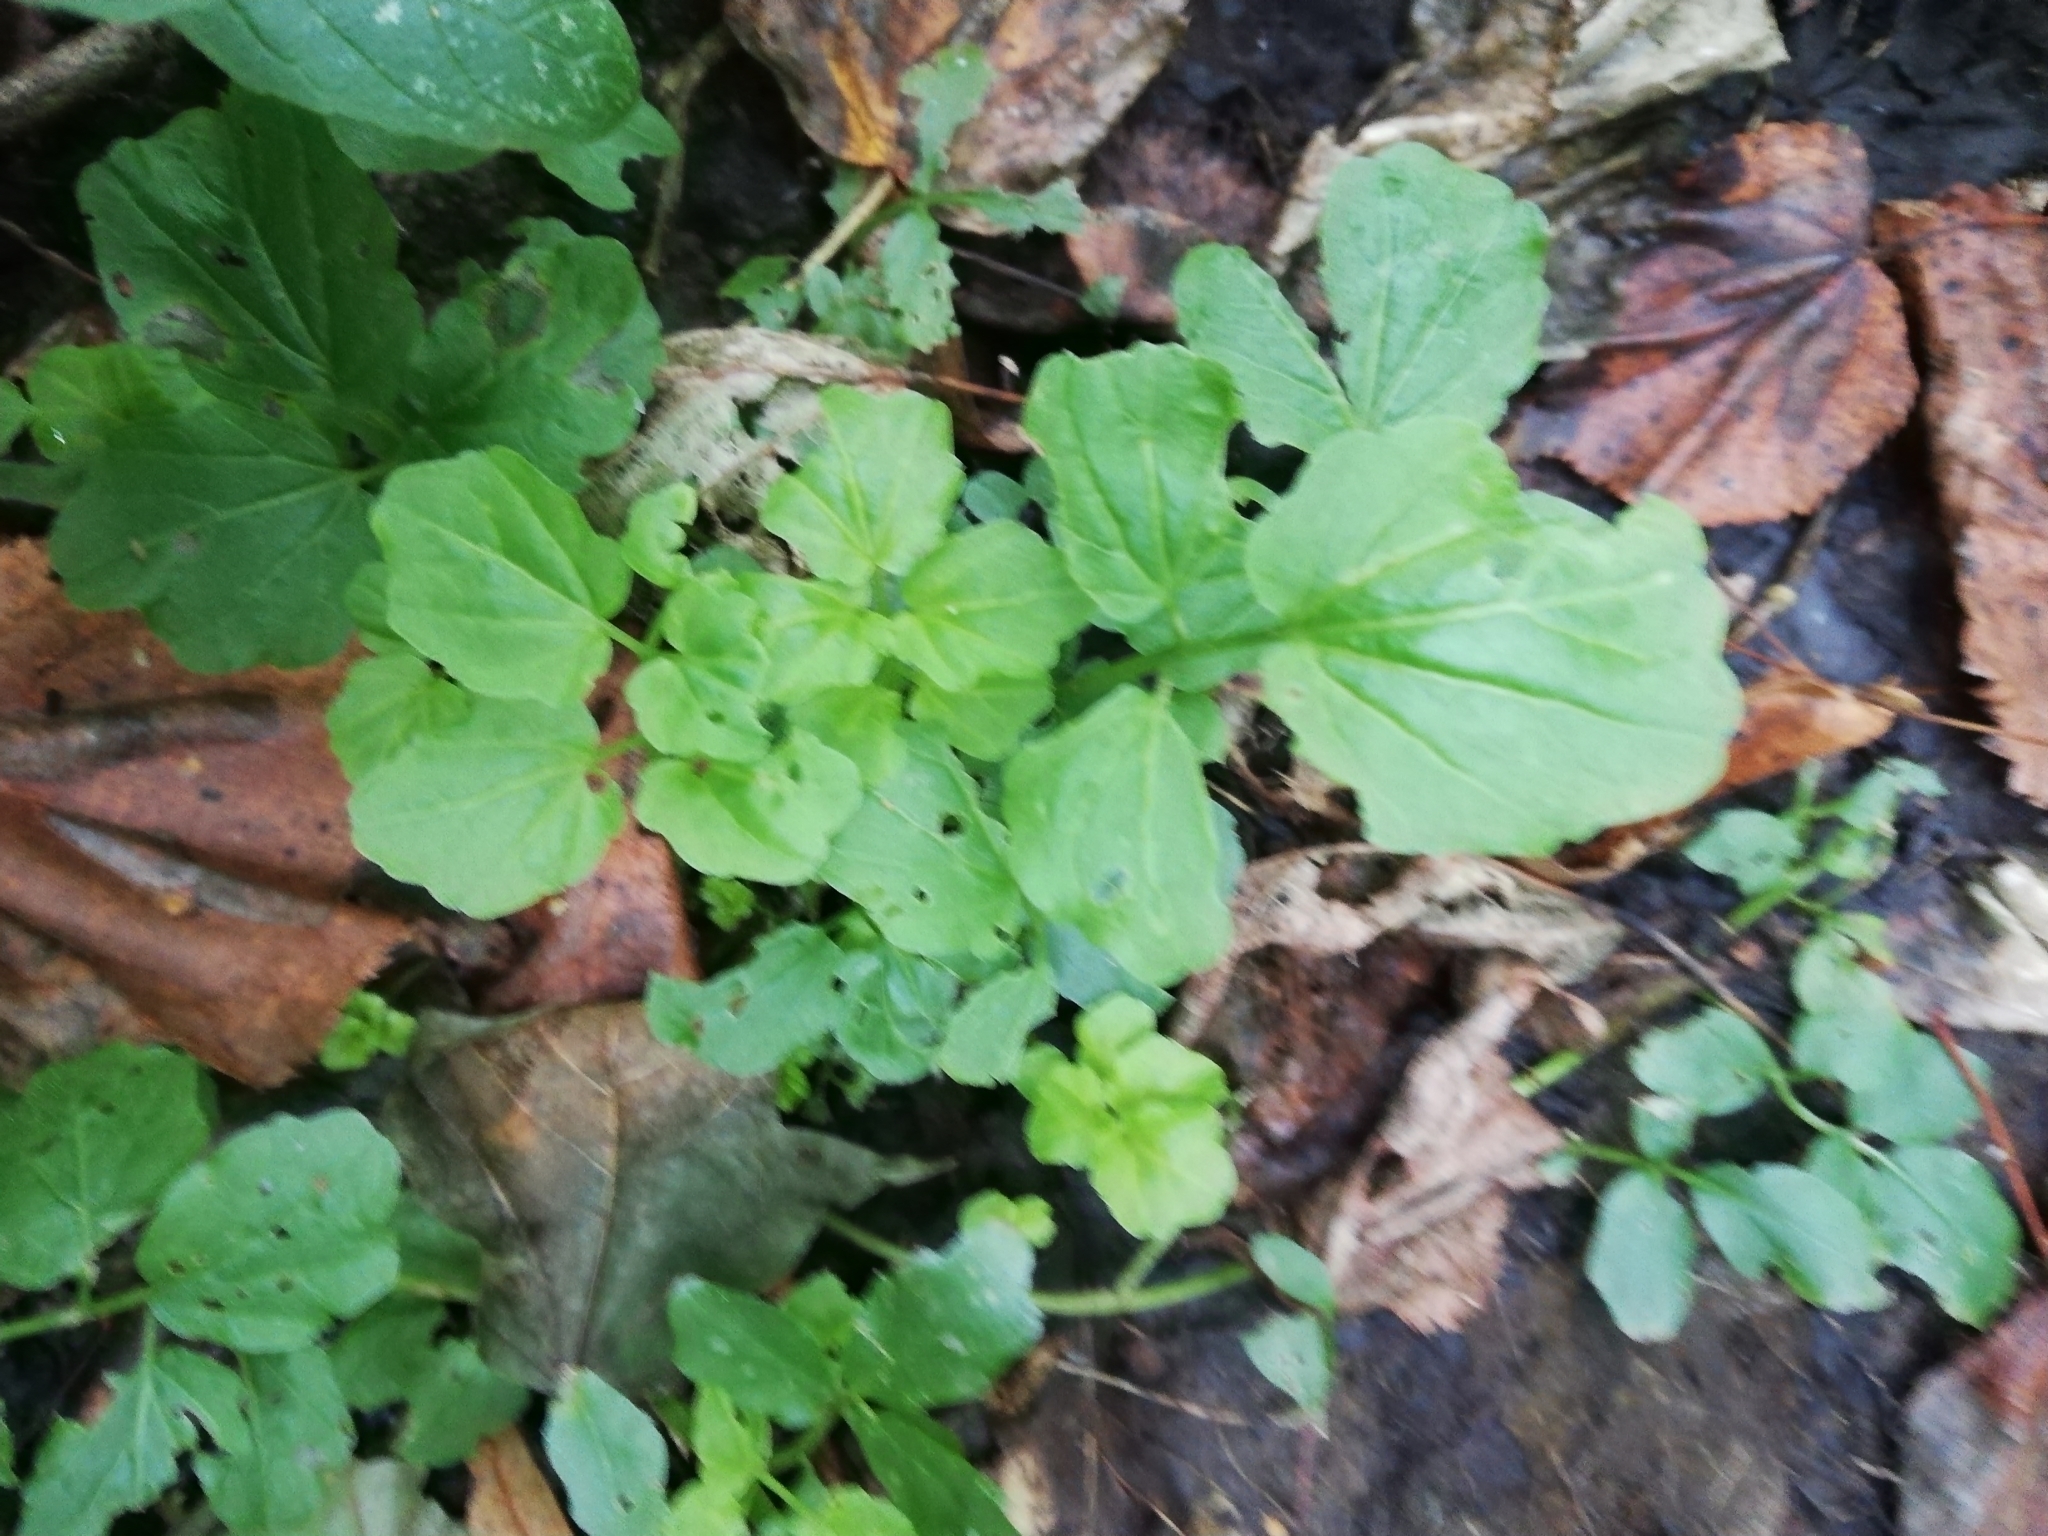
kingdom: Plantae
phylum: Tracheophyta
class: Magnoliopsida
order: Brassicales
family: Brassicaceae
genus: Cardamine
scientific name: Cardamine amara
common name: Large bitter-cress
